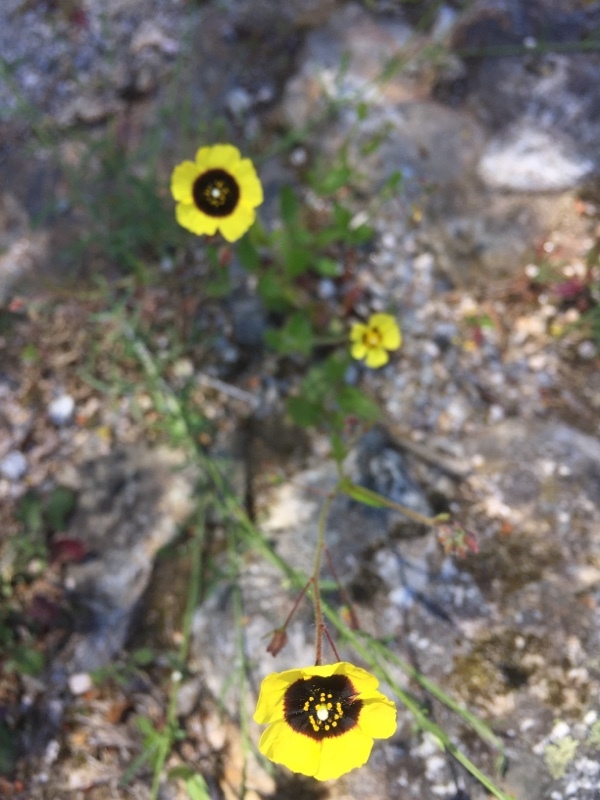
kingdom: Plantae
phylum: Tracheophyta
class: Magnoliopsida
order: Malvales
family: Cistaceae
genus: Tuberaria
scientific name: Tuberaria guttata
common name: Spotted rock-rose
